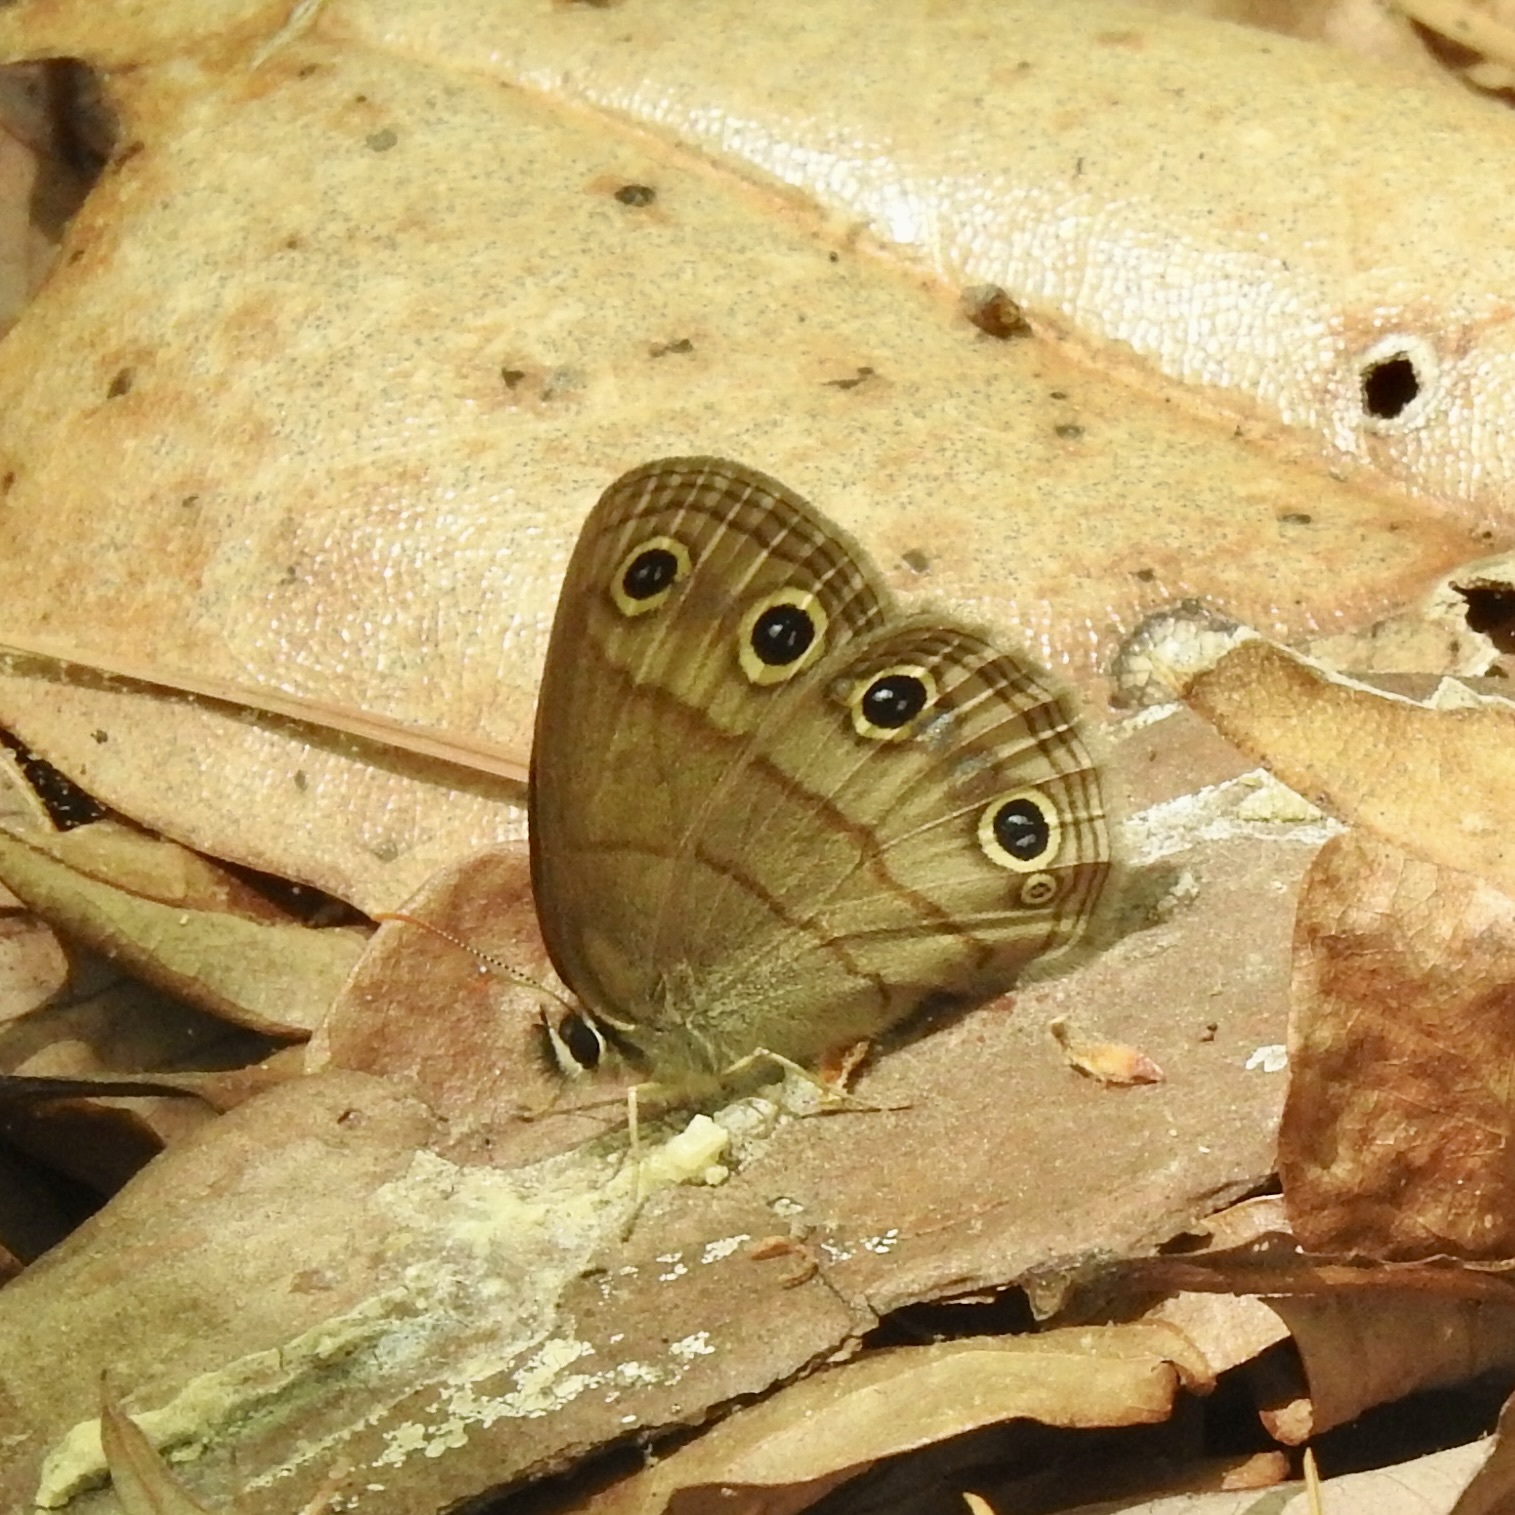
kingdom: Animalia
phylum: Arthropoda
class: Insecta
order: Lepidoptera
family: Nymphalidae
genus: Euptychia
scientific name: Euptychia cymela
